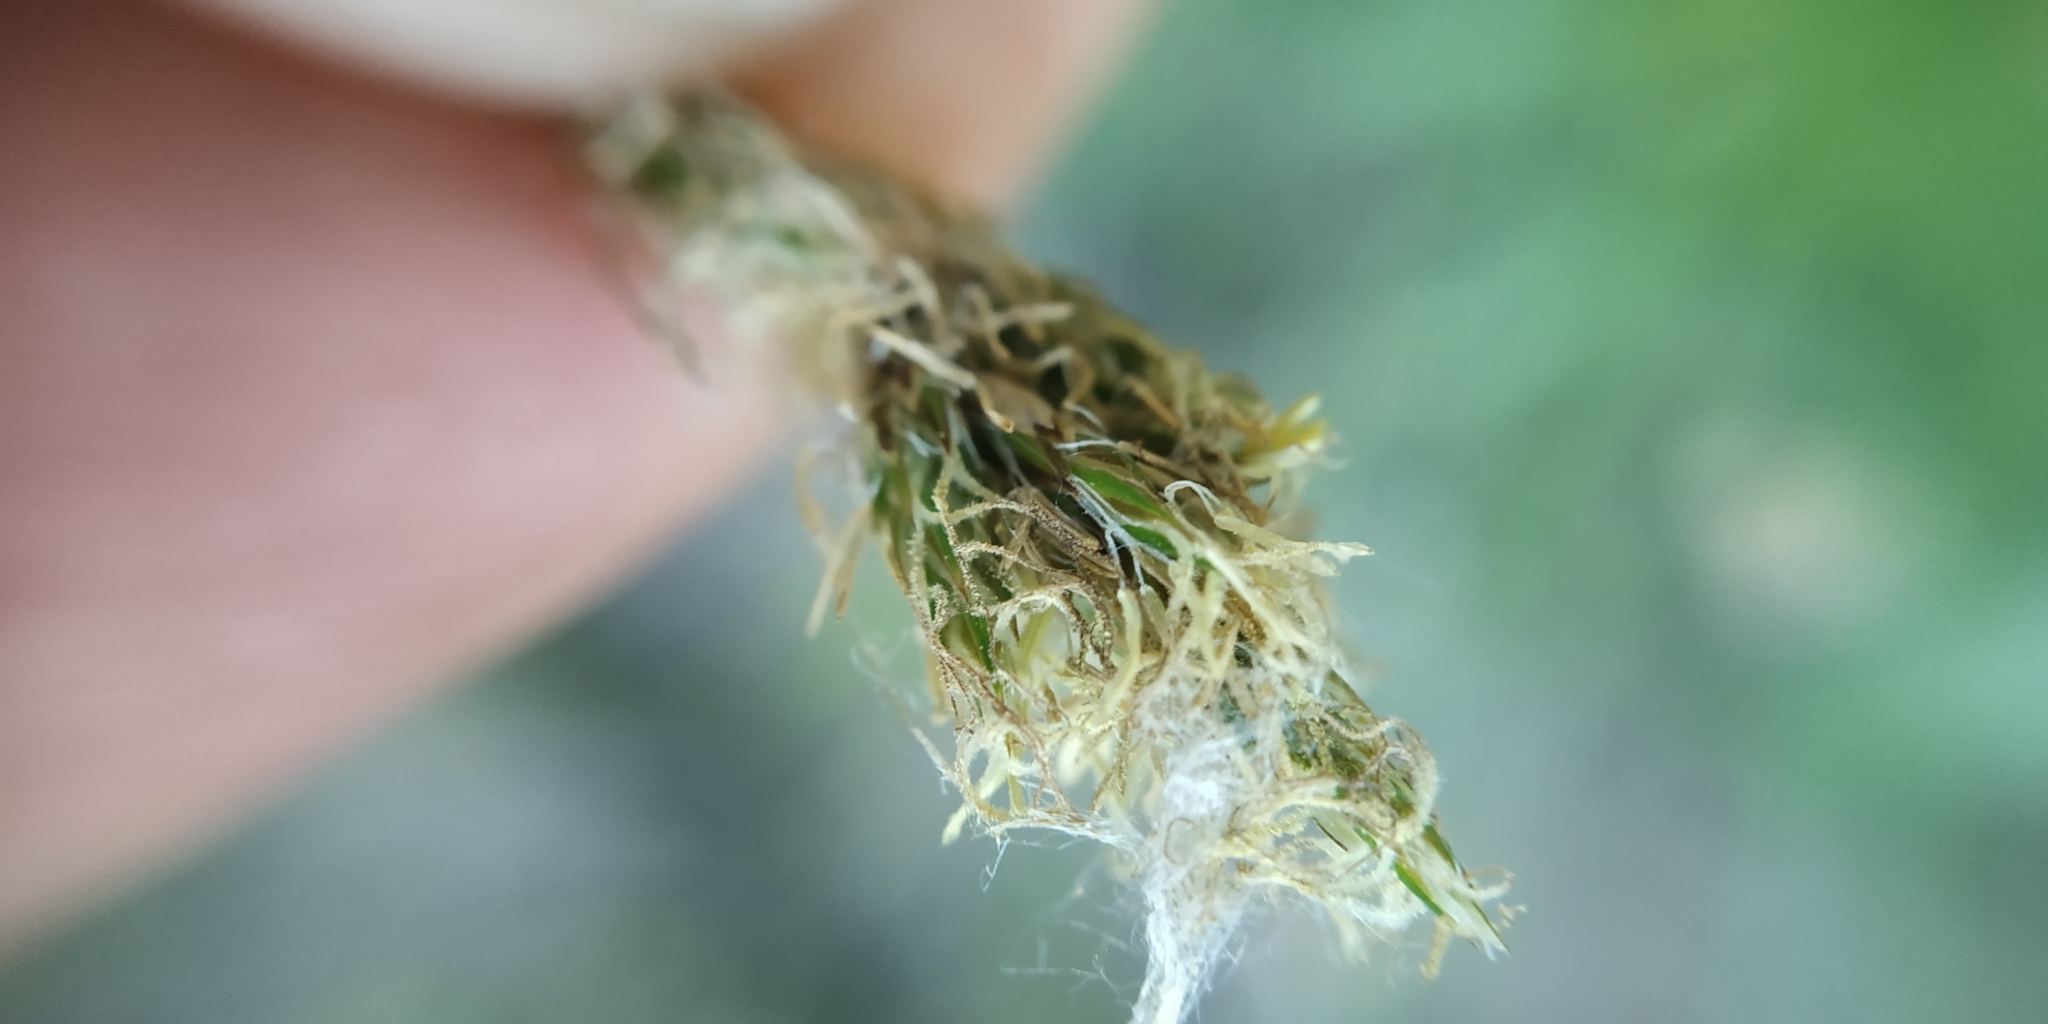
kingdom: Plantae
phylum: Tracheophyta
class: Liliopsida
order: Poales
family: Cyperaceae
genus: Carex
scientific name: Carex praecox
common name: Early sedge
